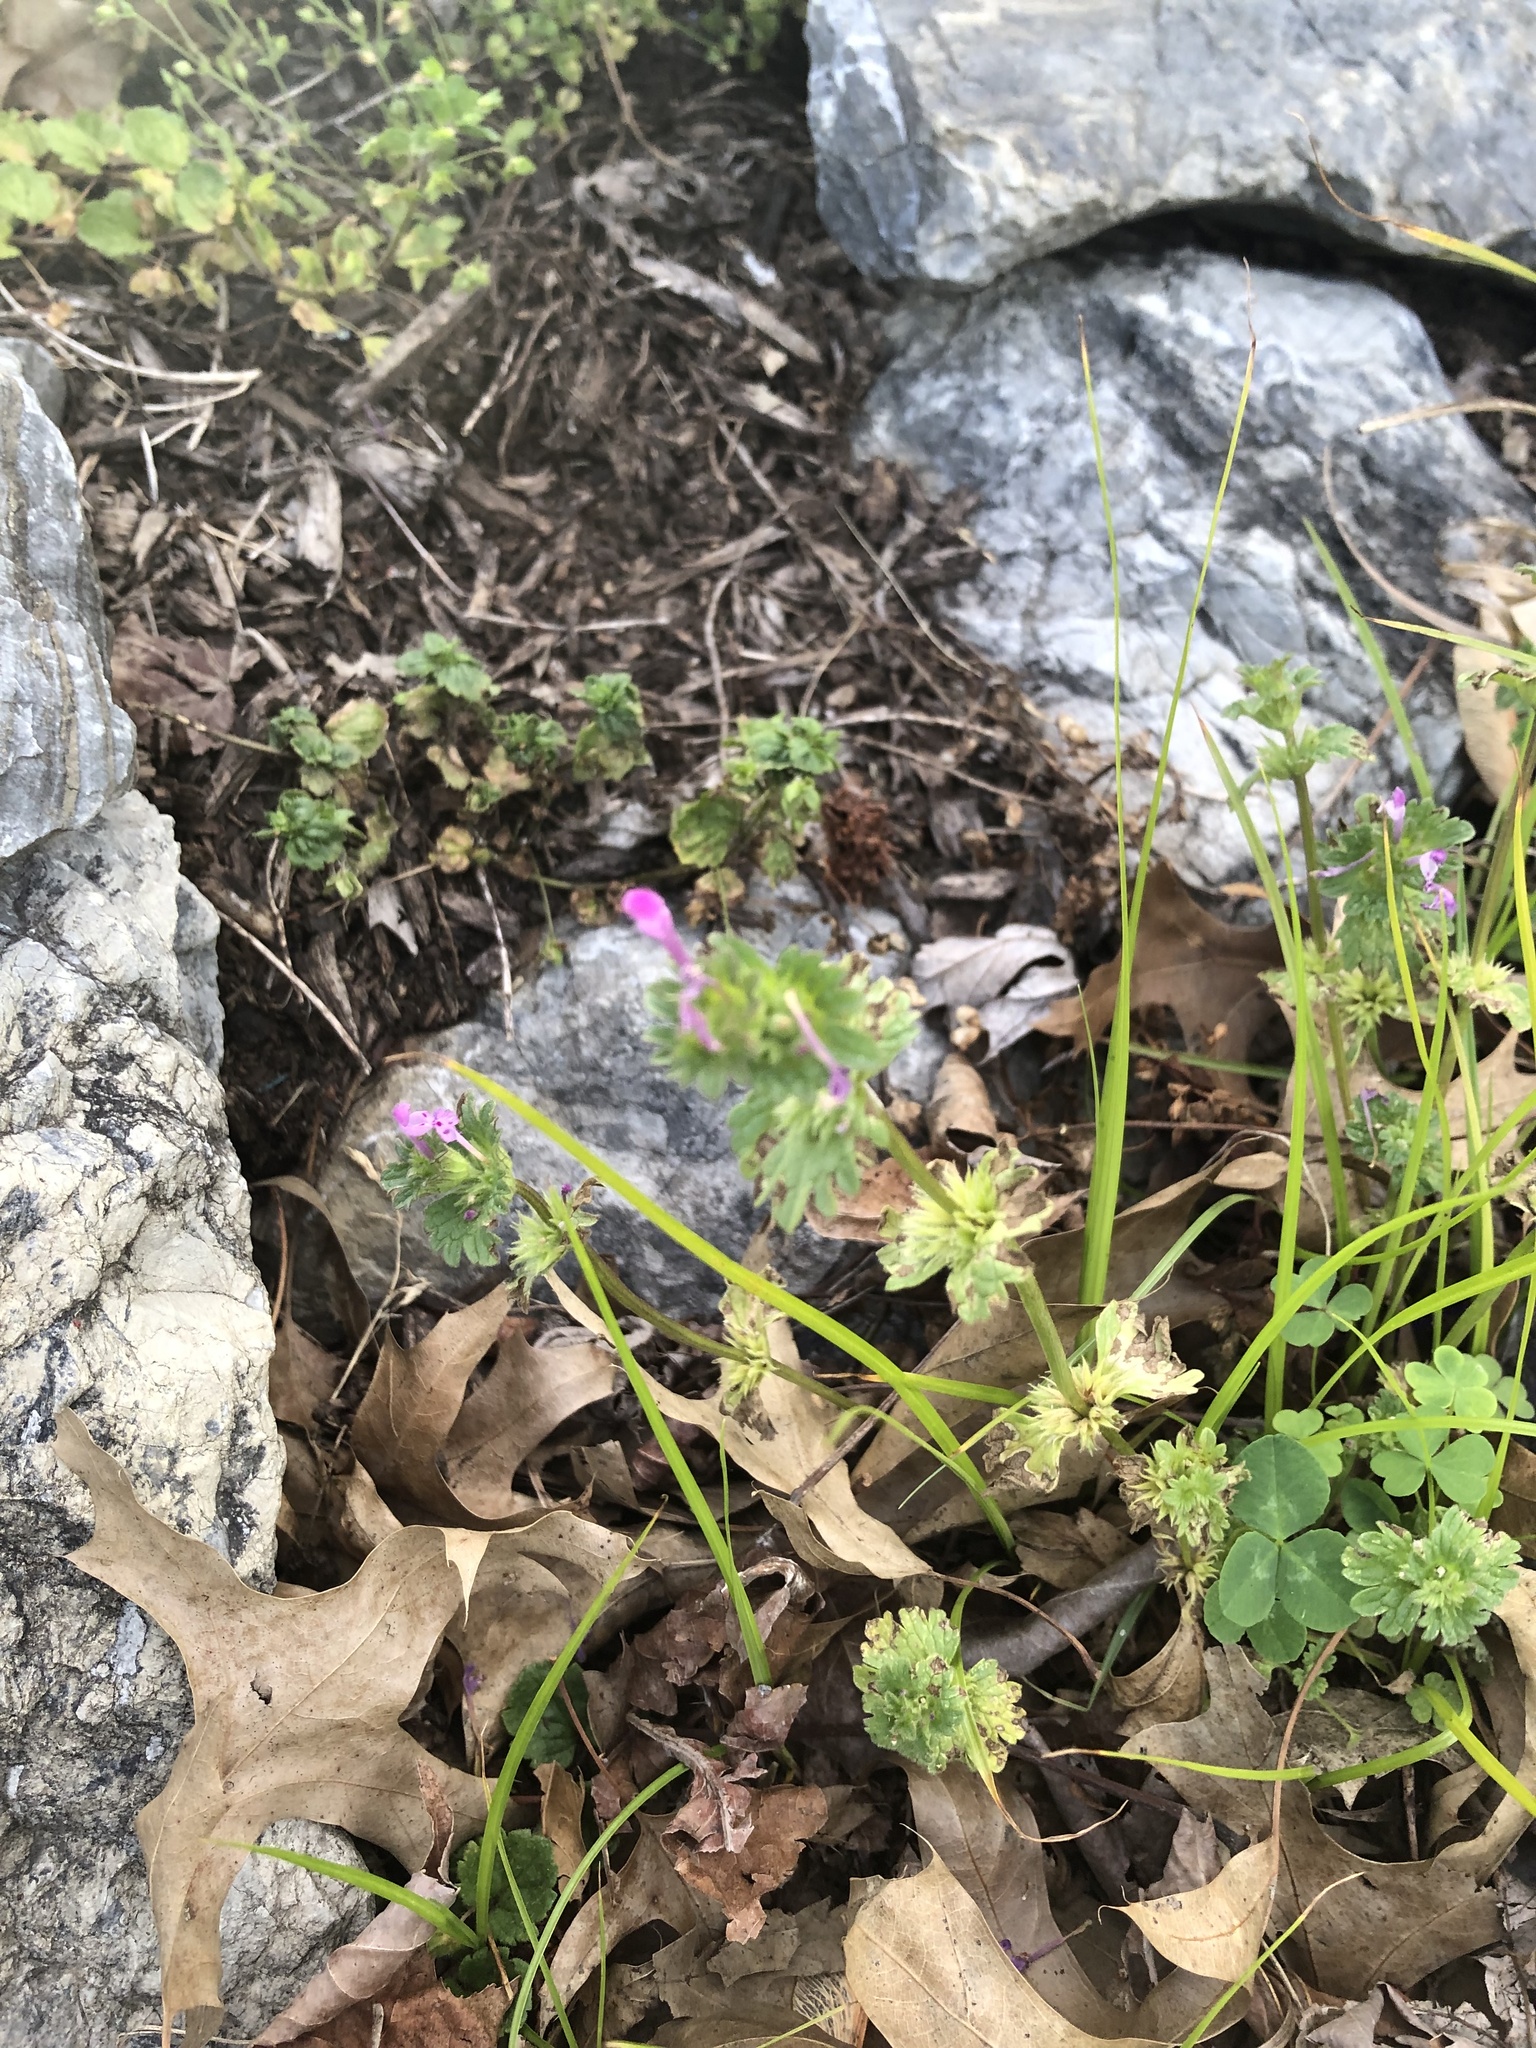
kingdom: Plantae
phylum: Tracheophyta
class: Magnoliopsida
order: Lamiales
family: Lamiaceae
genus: Lamium
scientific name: Lamium amplexicaule
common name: Henbit dead-nettle
